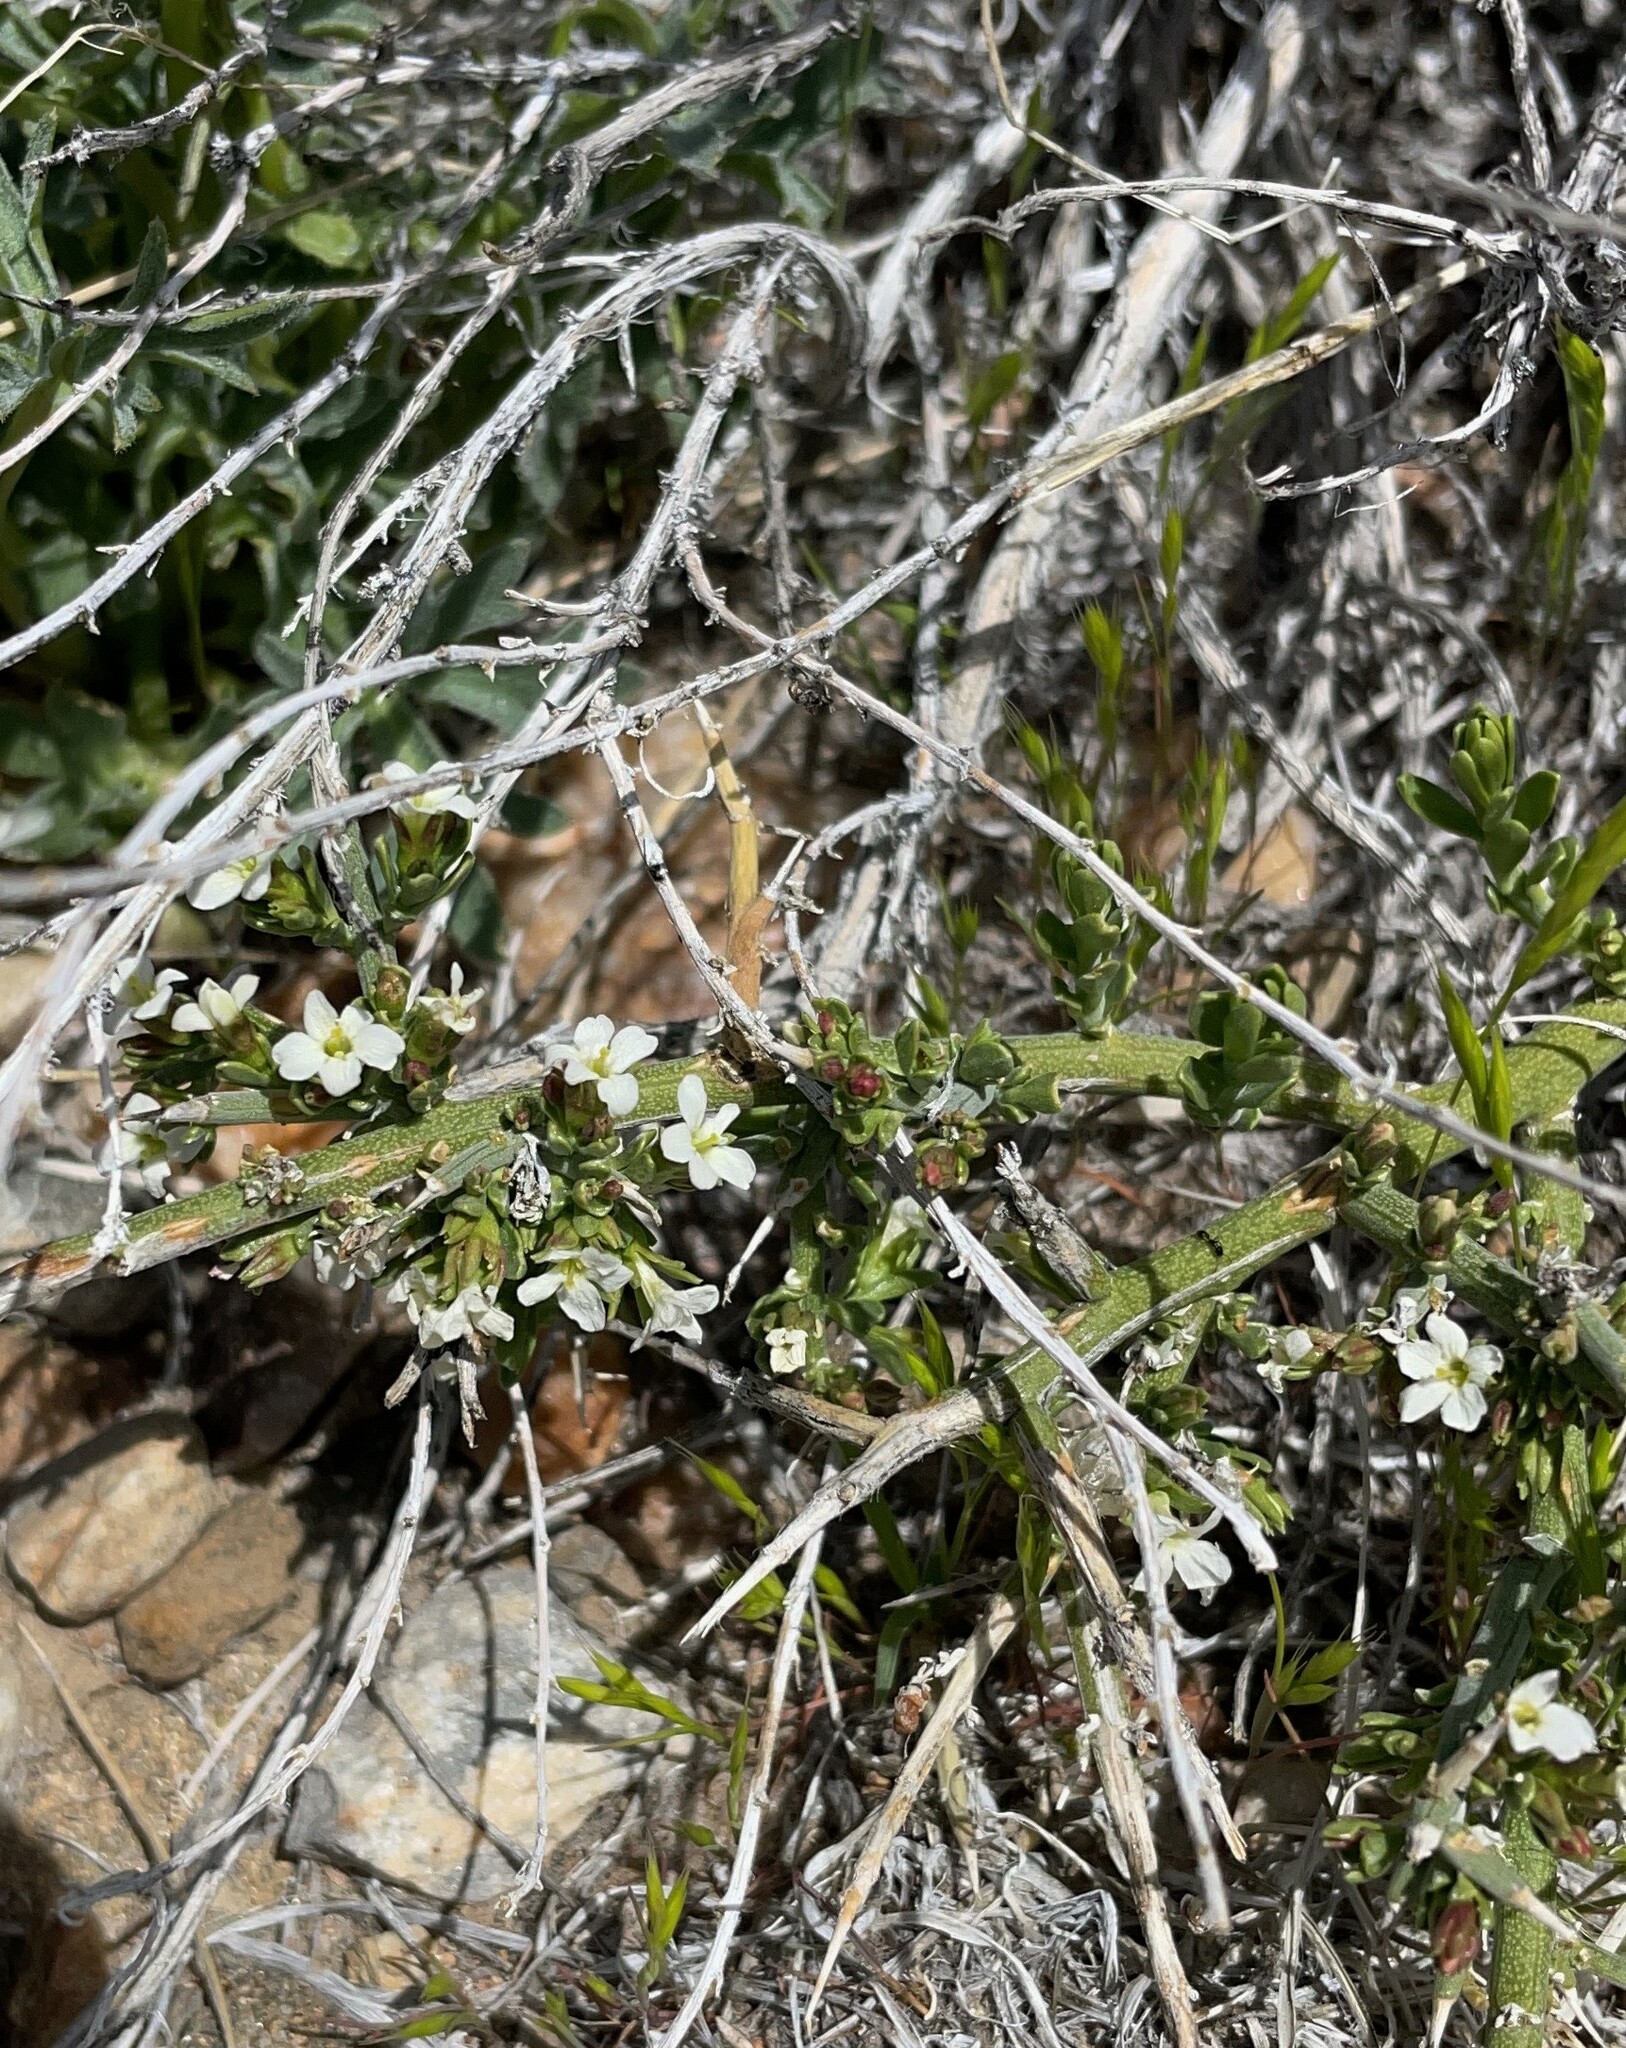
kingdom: Plantae
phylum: Tracheophyta
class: Magnoliopsida
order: Lamiales
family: Oleaceae
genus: Menodora
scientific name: Menodora spinescens
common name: Spiny menodora
